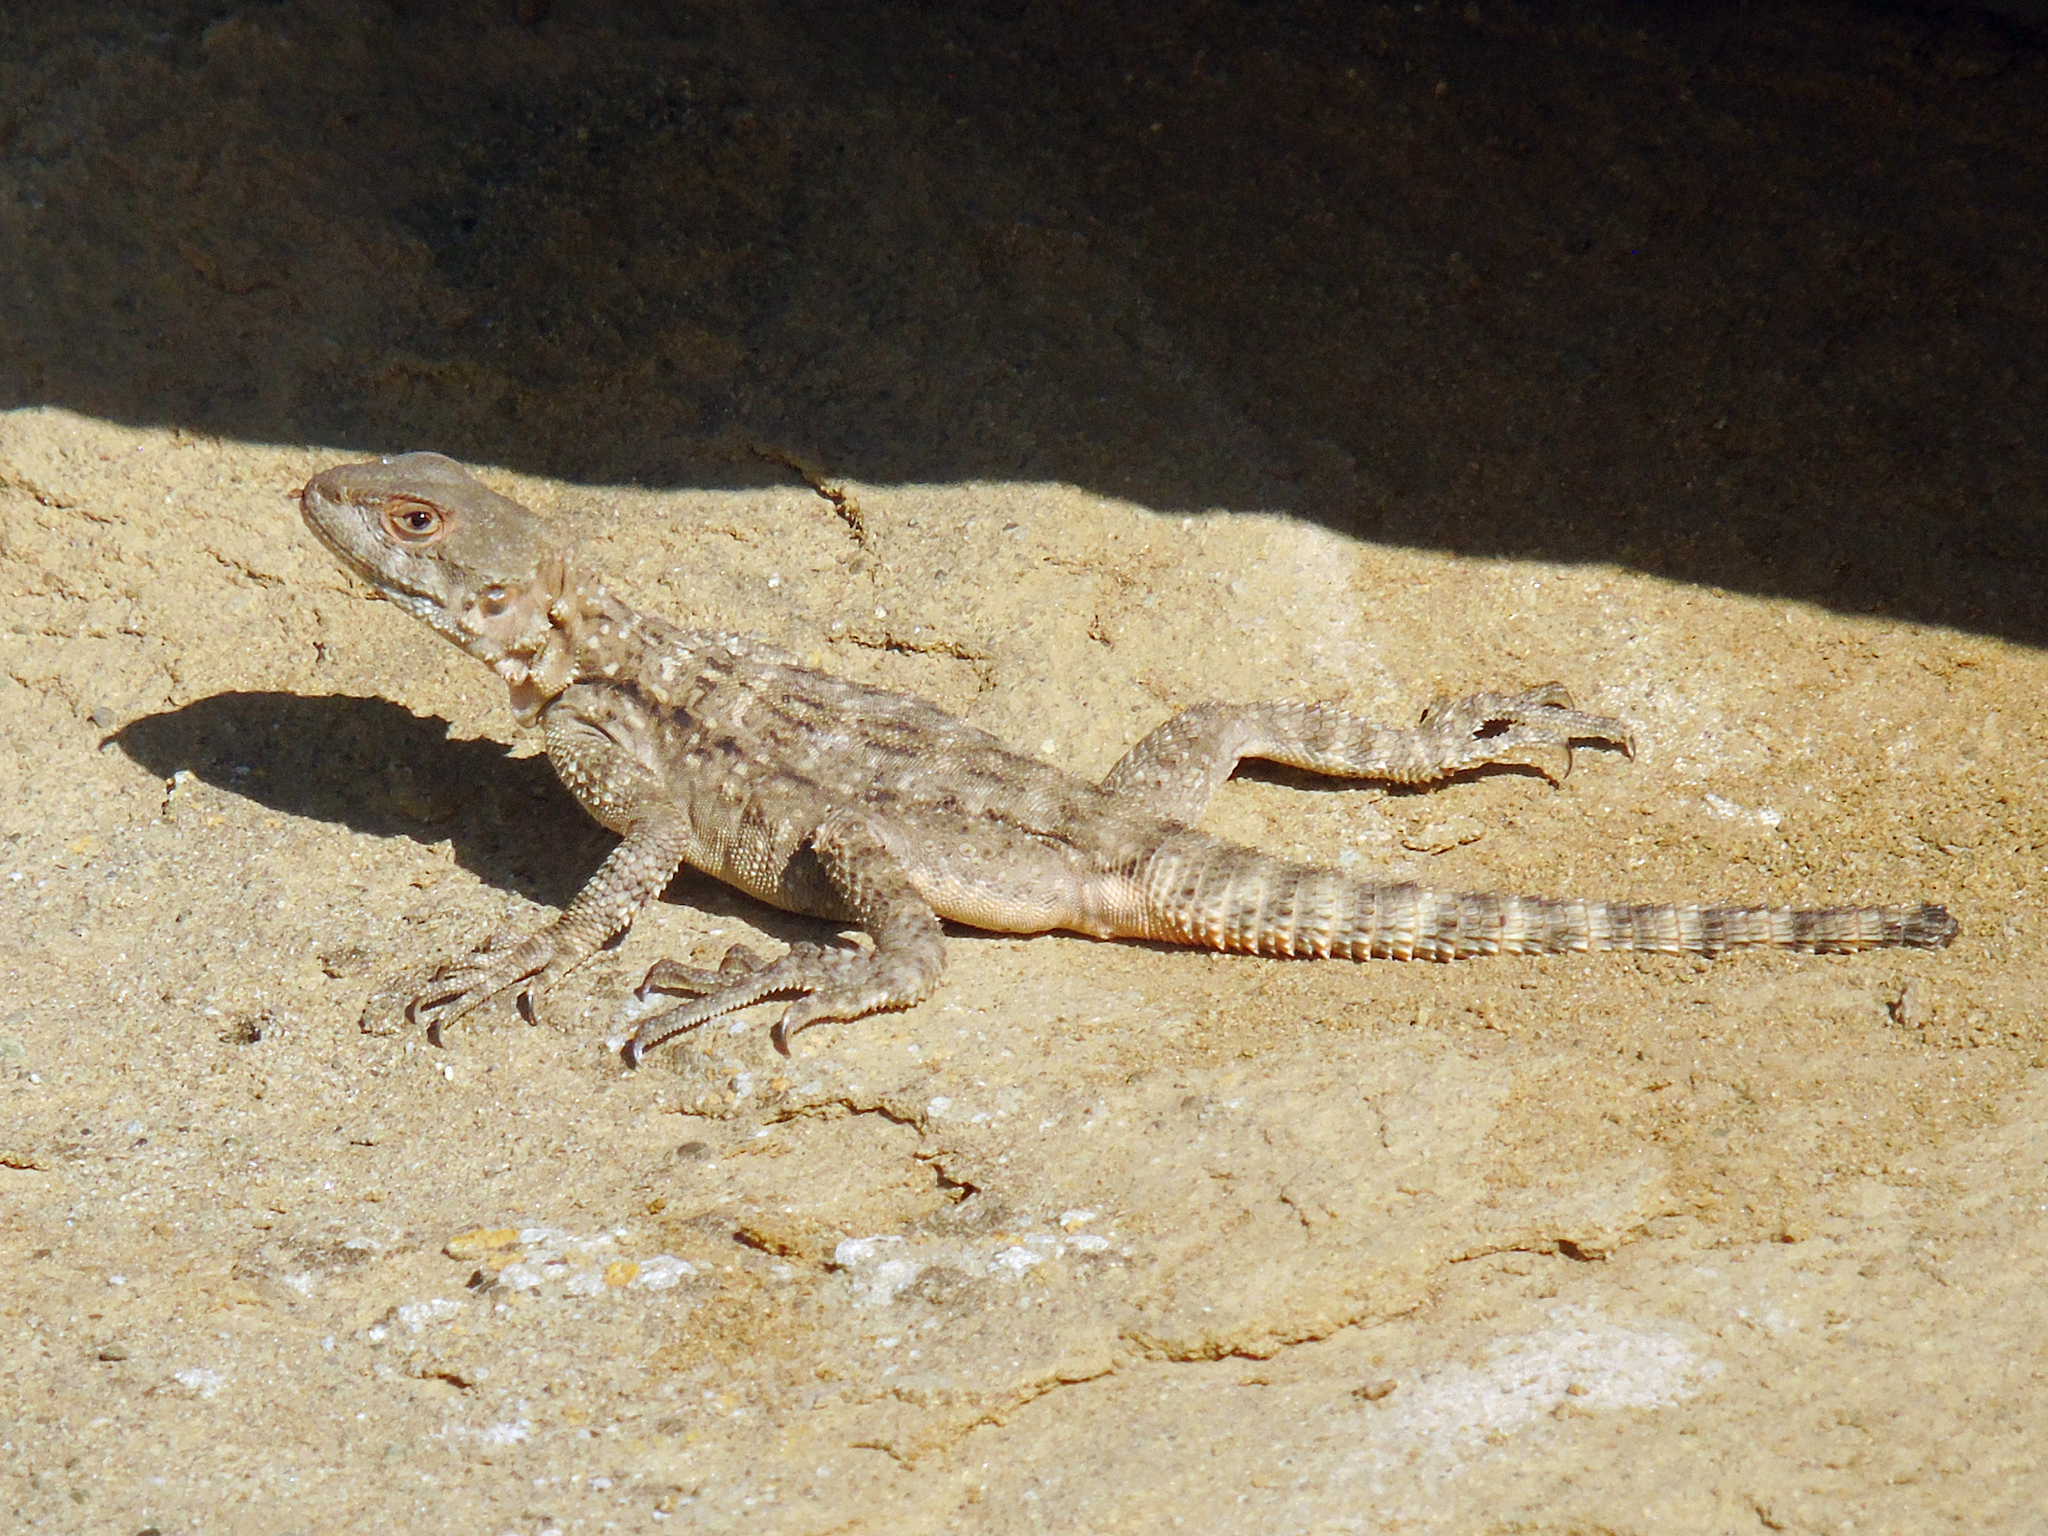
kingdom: Animalia
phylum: Chordata
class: Squamata
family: Agamidae
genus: Paralaudakia
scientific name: Paralaudakia caucasia
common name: Caucasian agama
